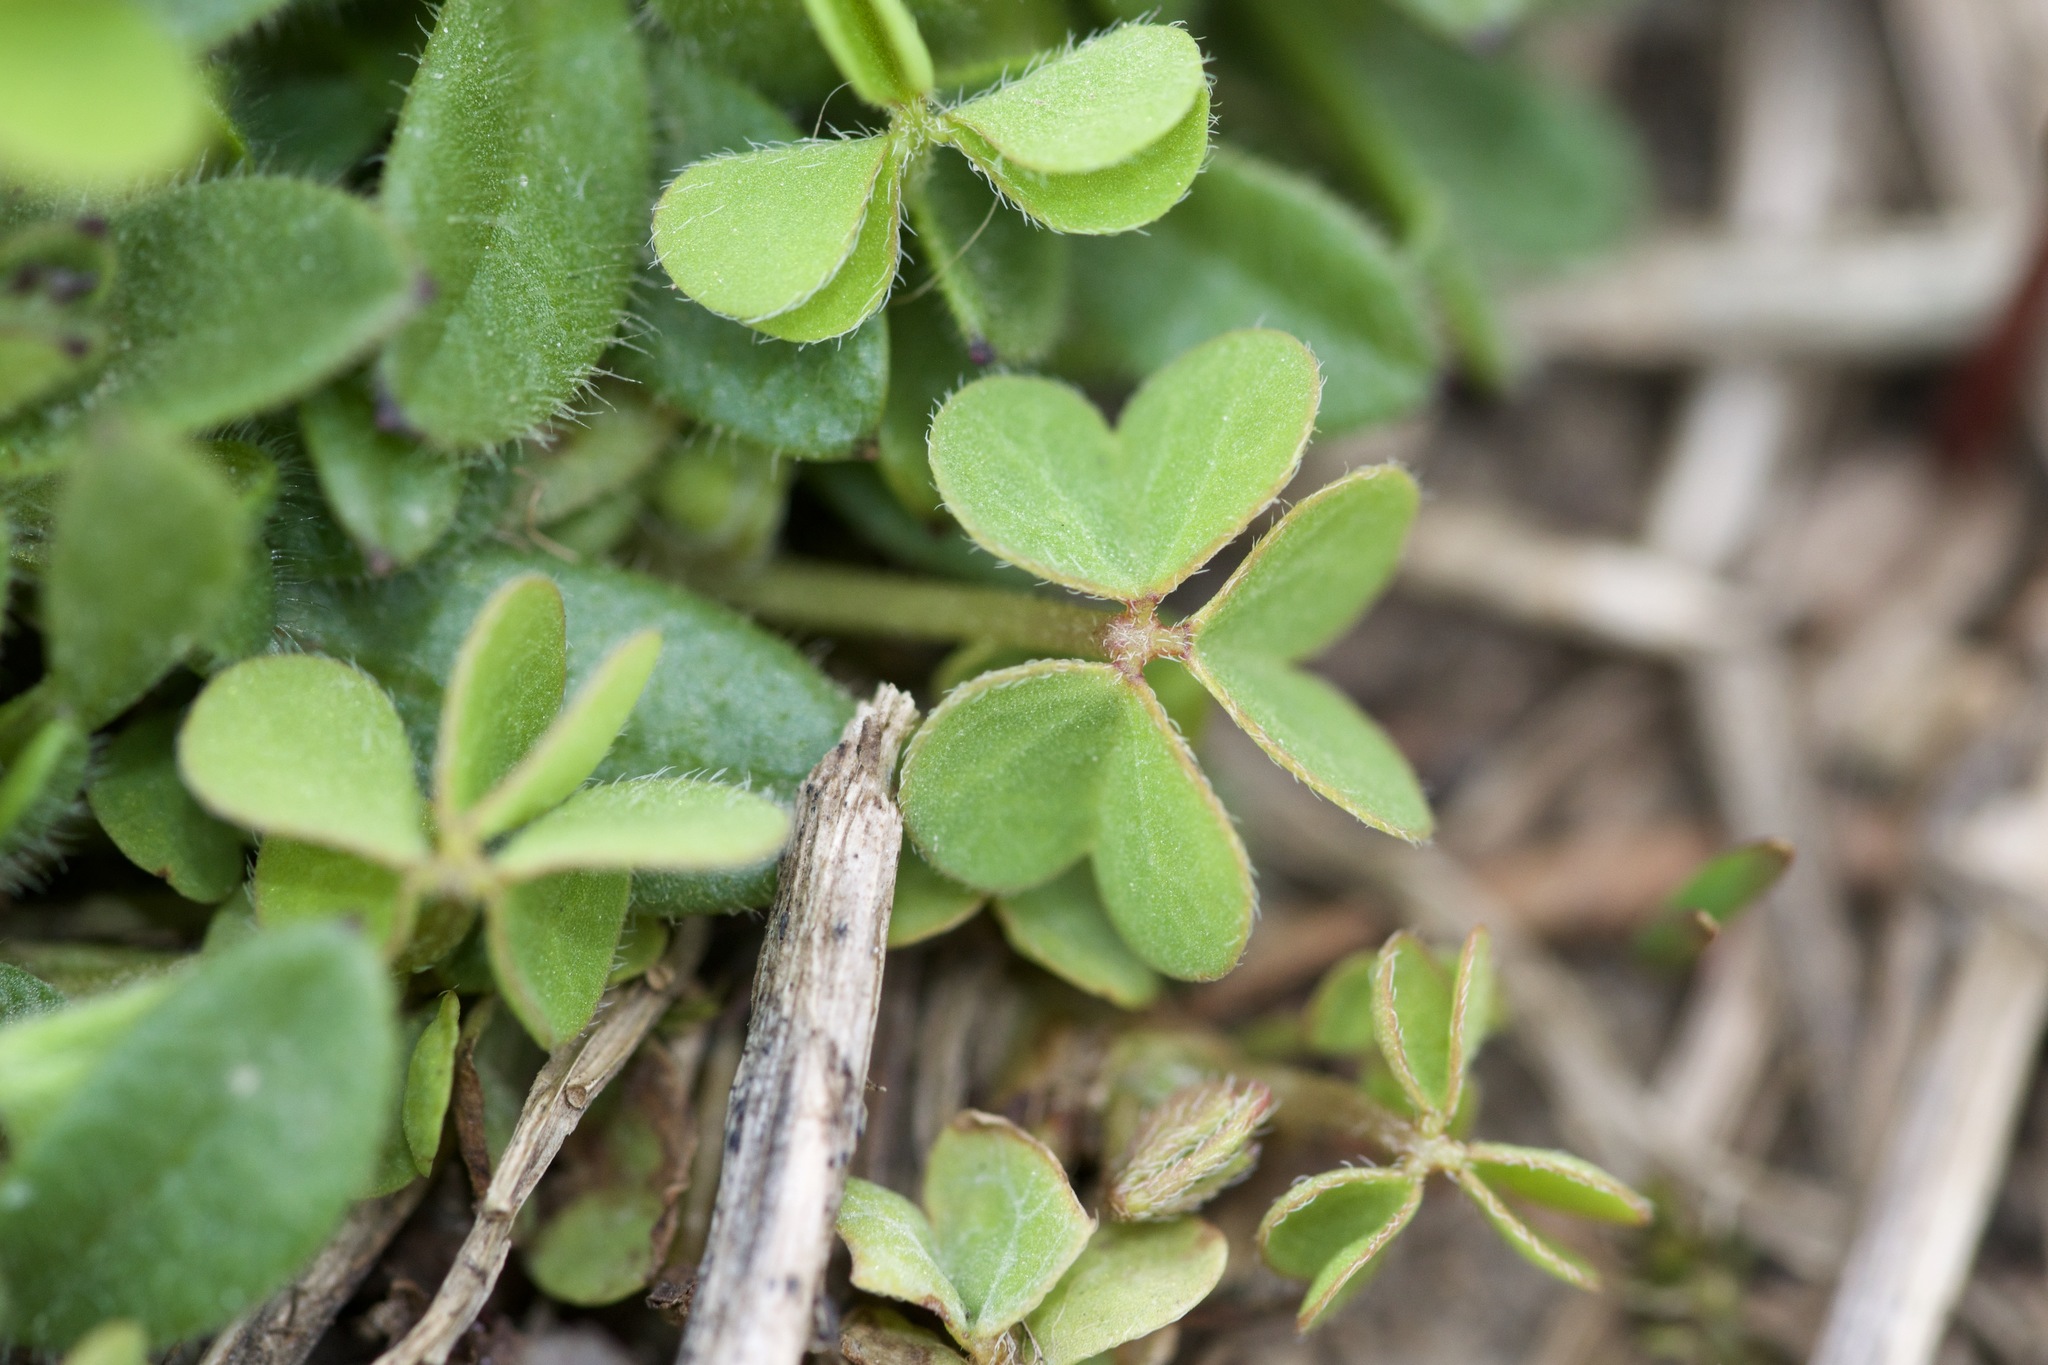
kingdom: Plantae
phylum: Tracheophyta
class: Magnoliopsida
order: Oxalidales
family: Oxalidaceae
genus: Oxalis
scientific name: Oxalis corniculata
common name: Procumbent yellow-sorrel
